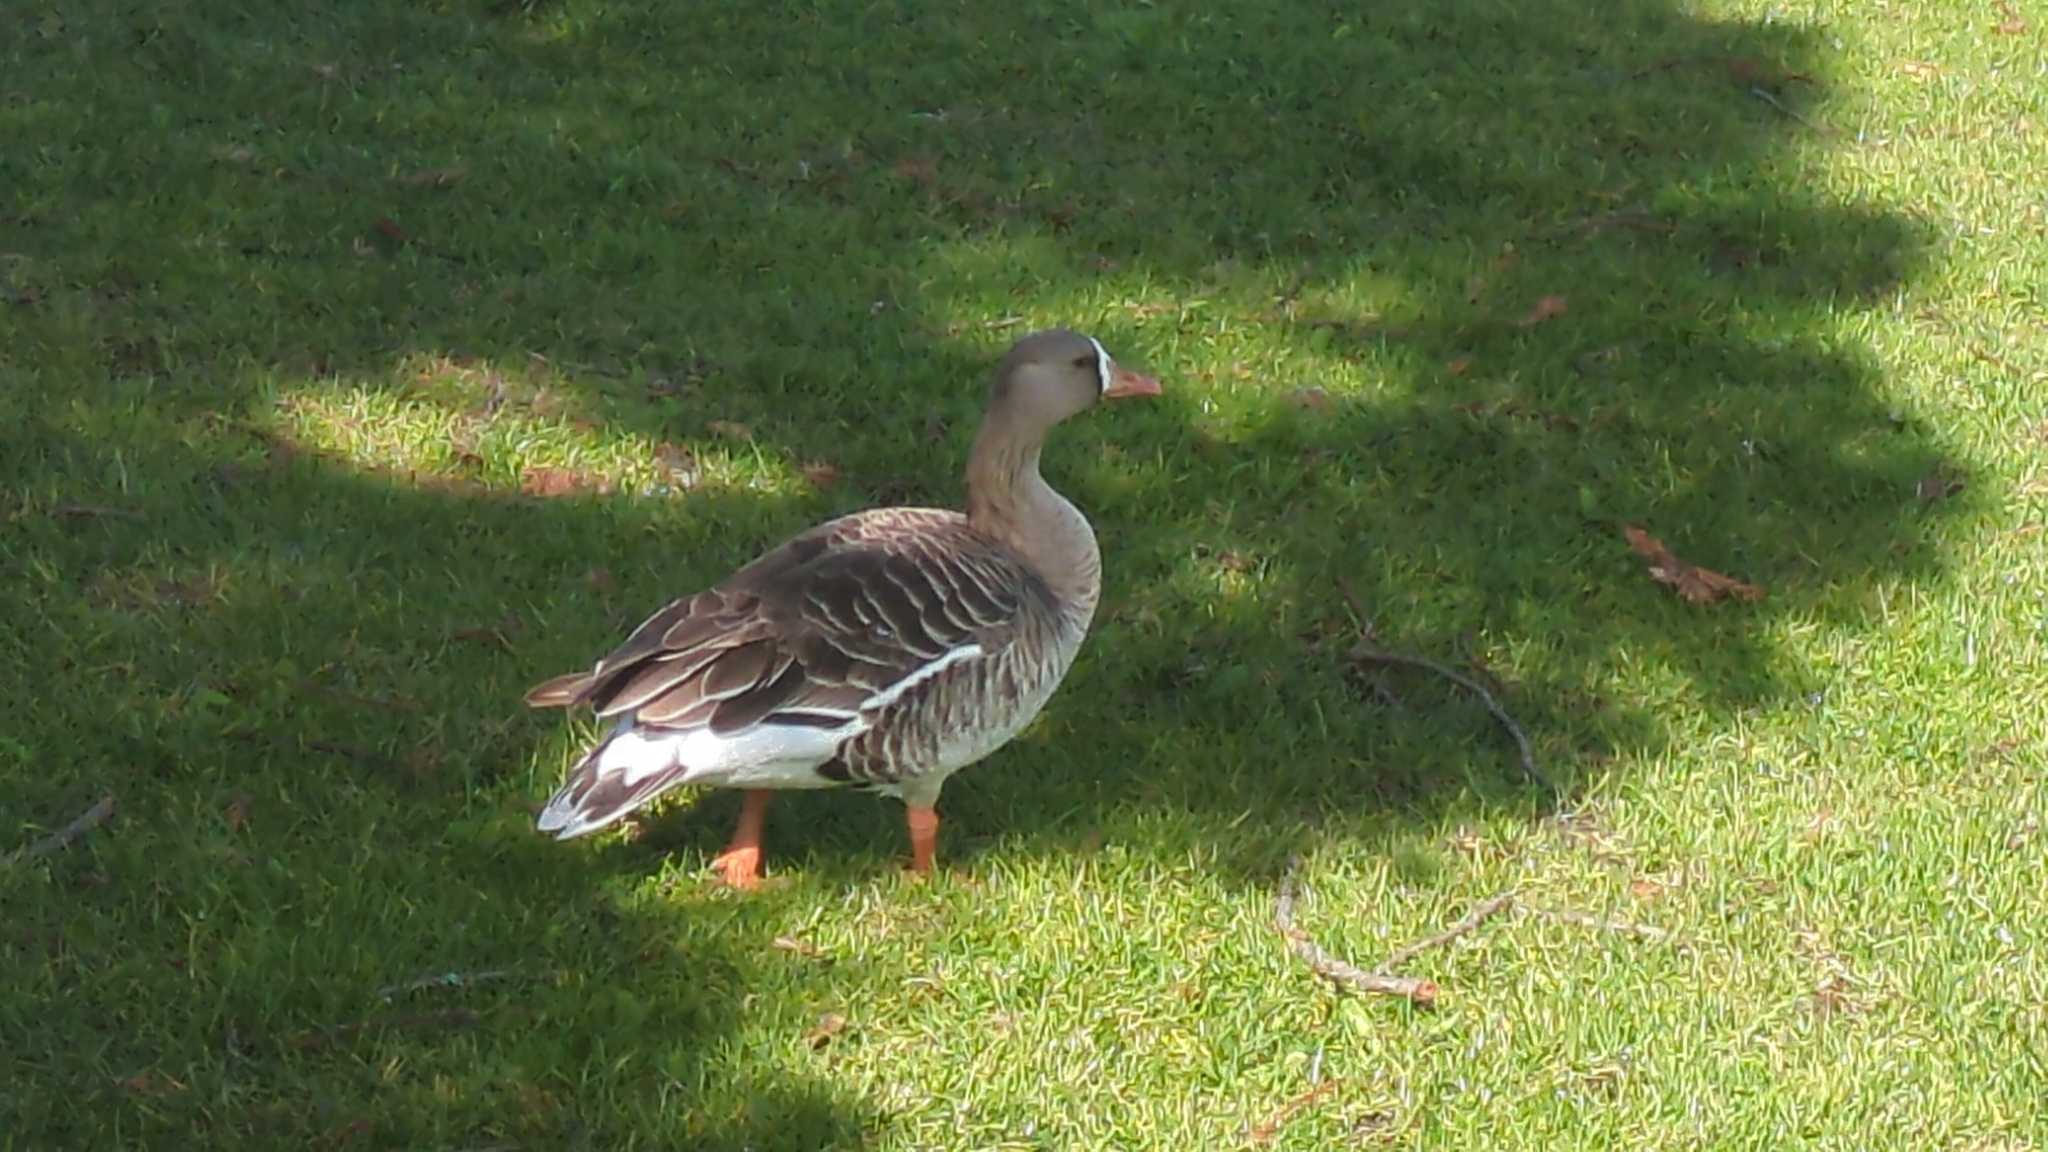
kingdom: Animalia
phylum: Chordata
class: Aves
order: Anseriformes
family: Anatidae
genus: Anser
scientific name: Anser albifrons
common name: Greater white-fronted goose
